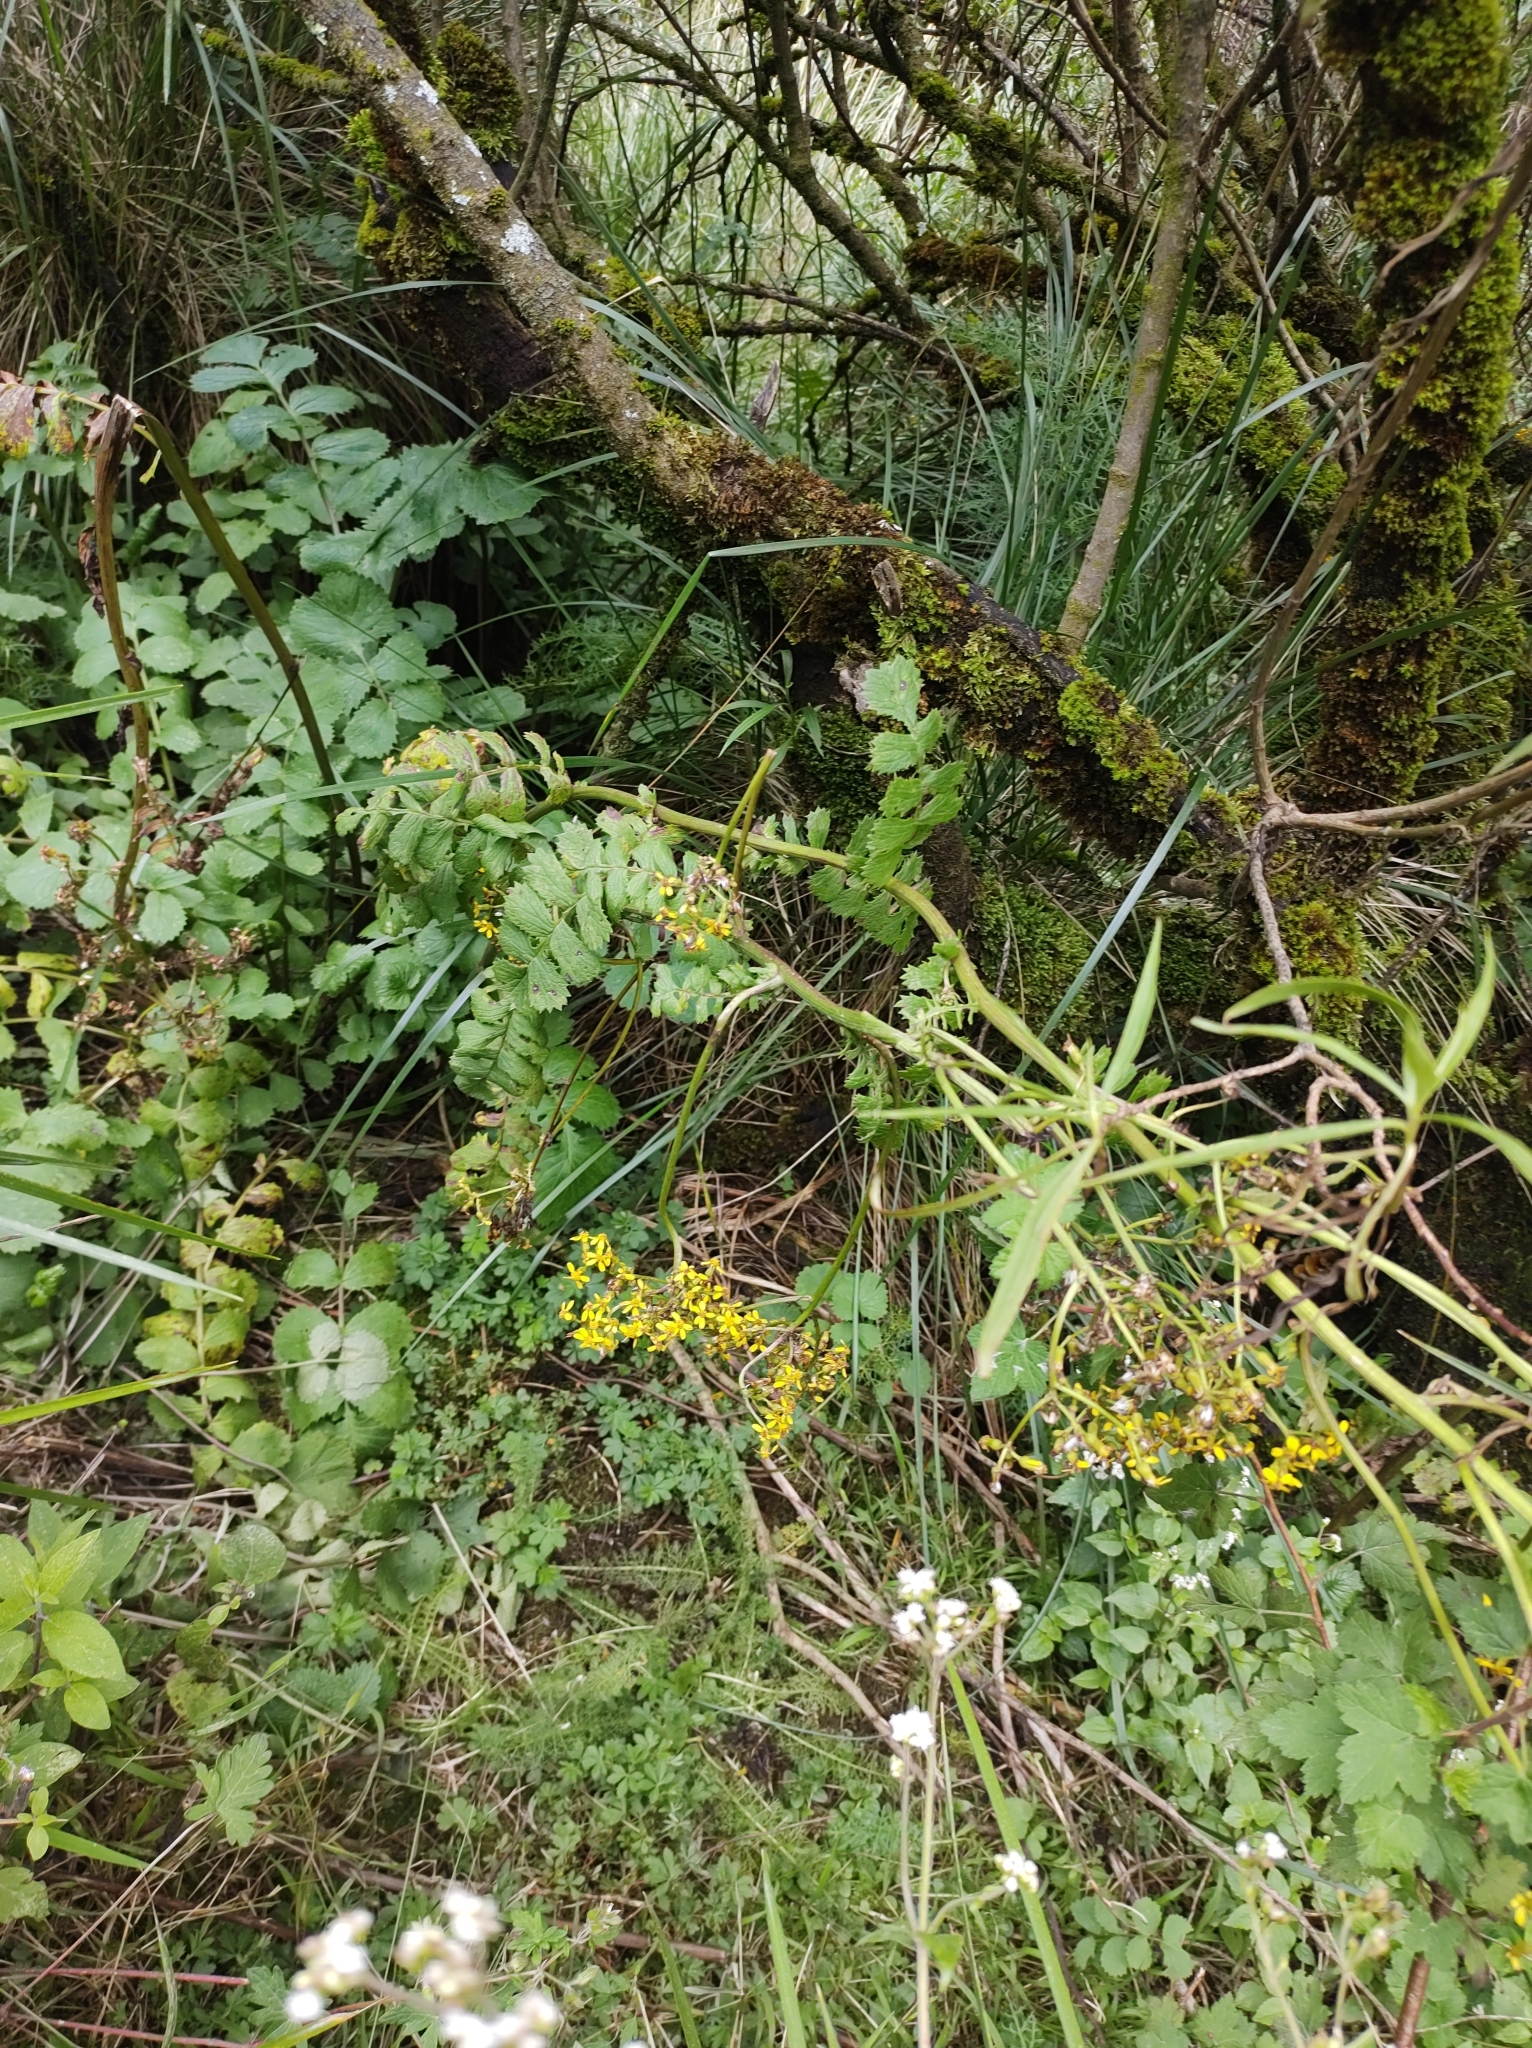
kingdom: Plantae
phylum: Tracheophyta
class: Magnoliopsida
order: Asterales
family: Asteraceae
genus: Packera
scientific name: Packera sanguisorbae
